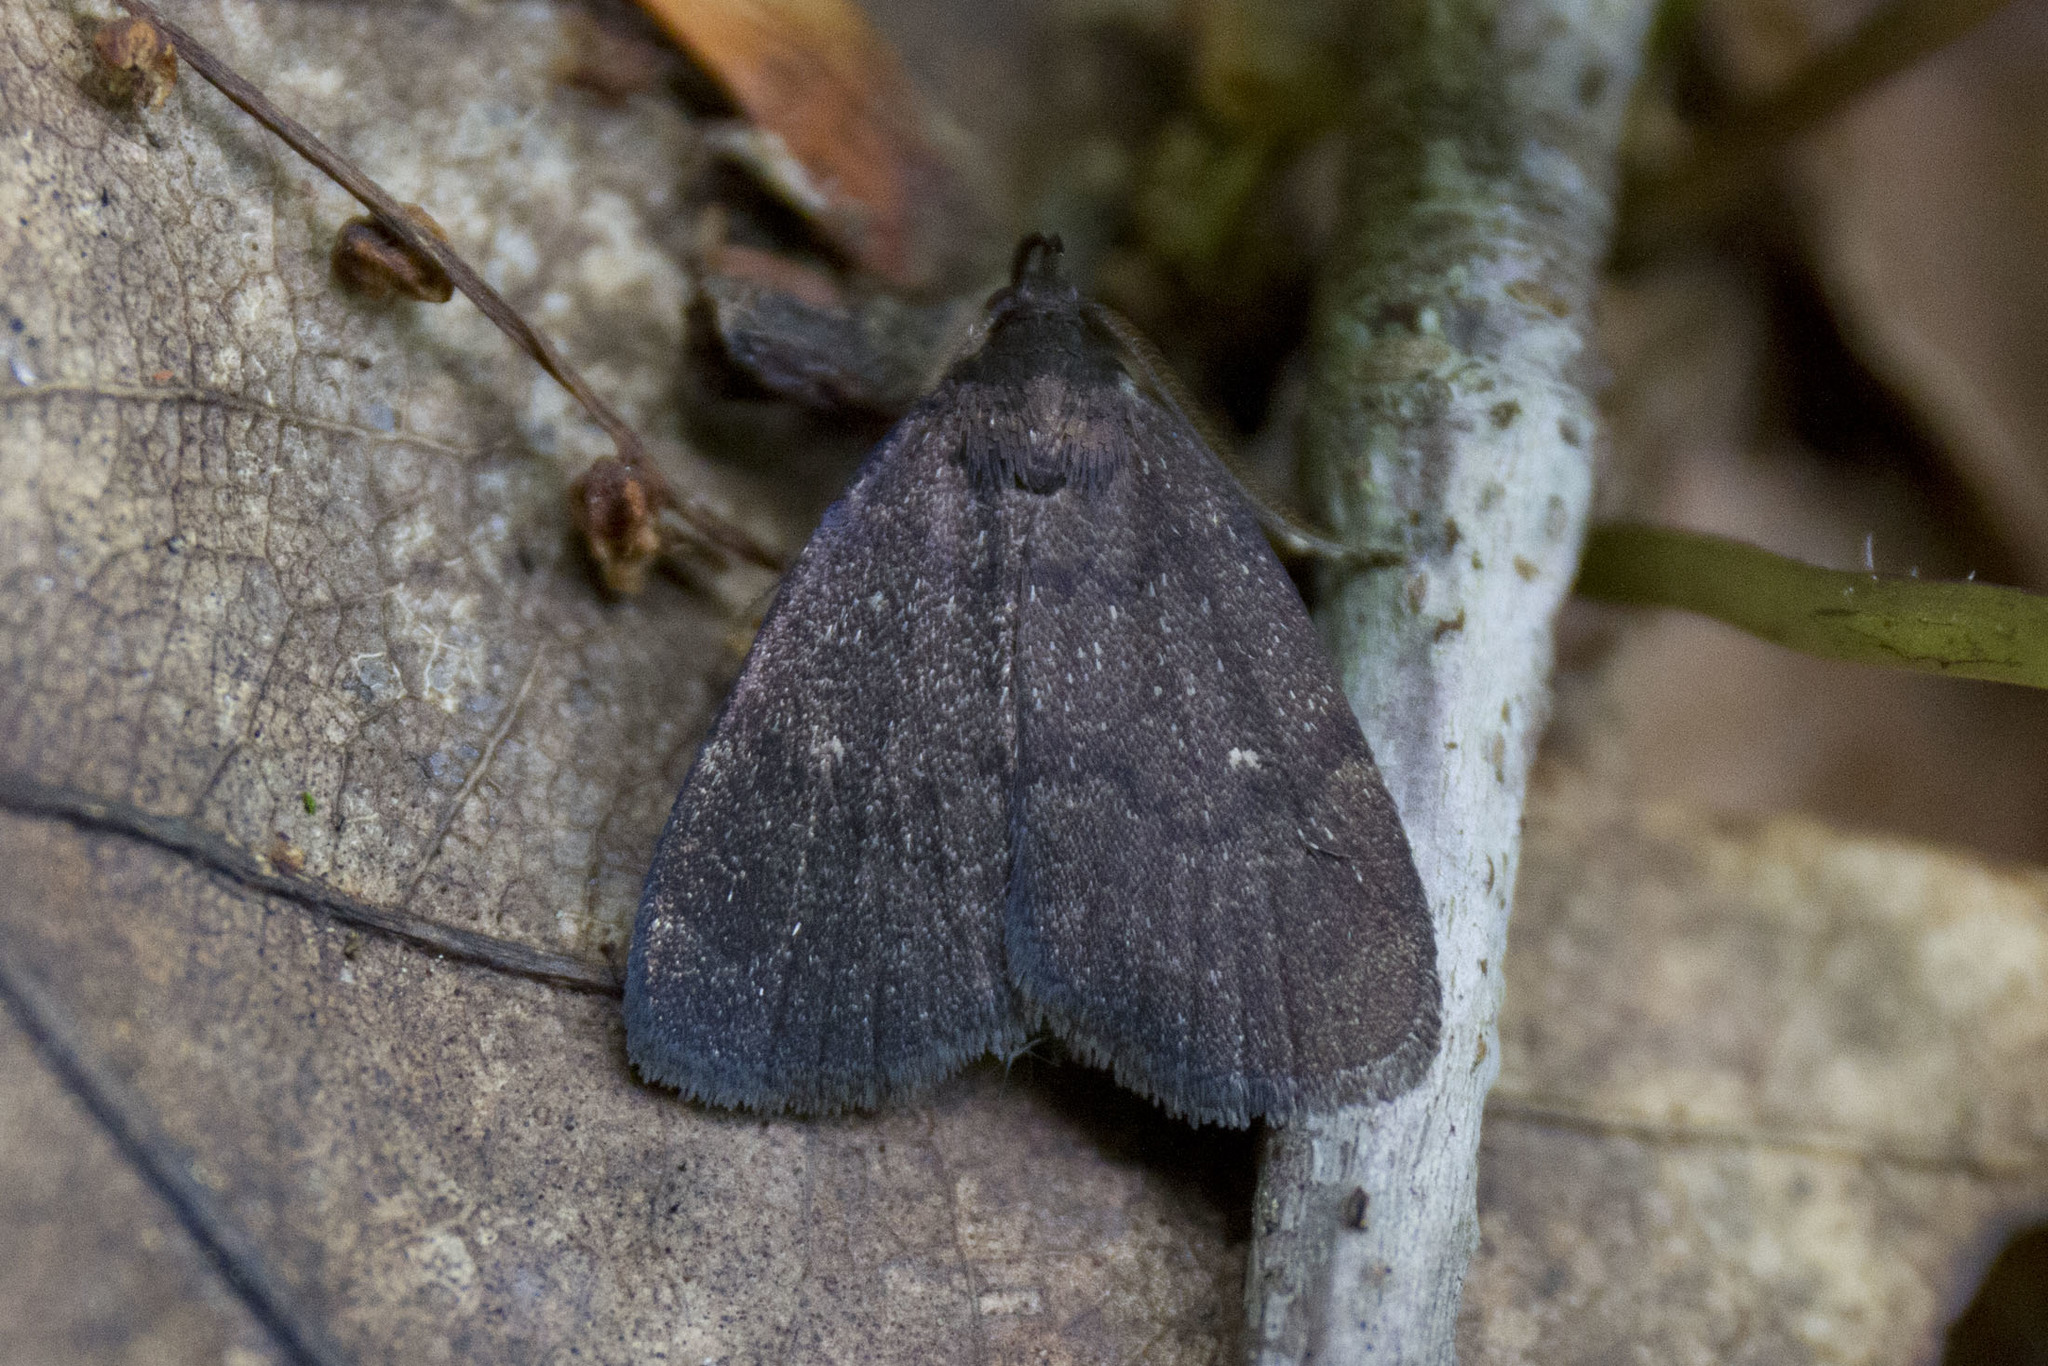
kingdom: Animalia
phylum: Arthropoda
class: Insecta
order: Lepidoptera
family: Erebidae
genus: Idia
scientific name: Idia rotundalis
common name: Rotund idia moth
